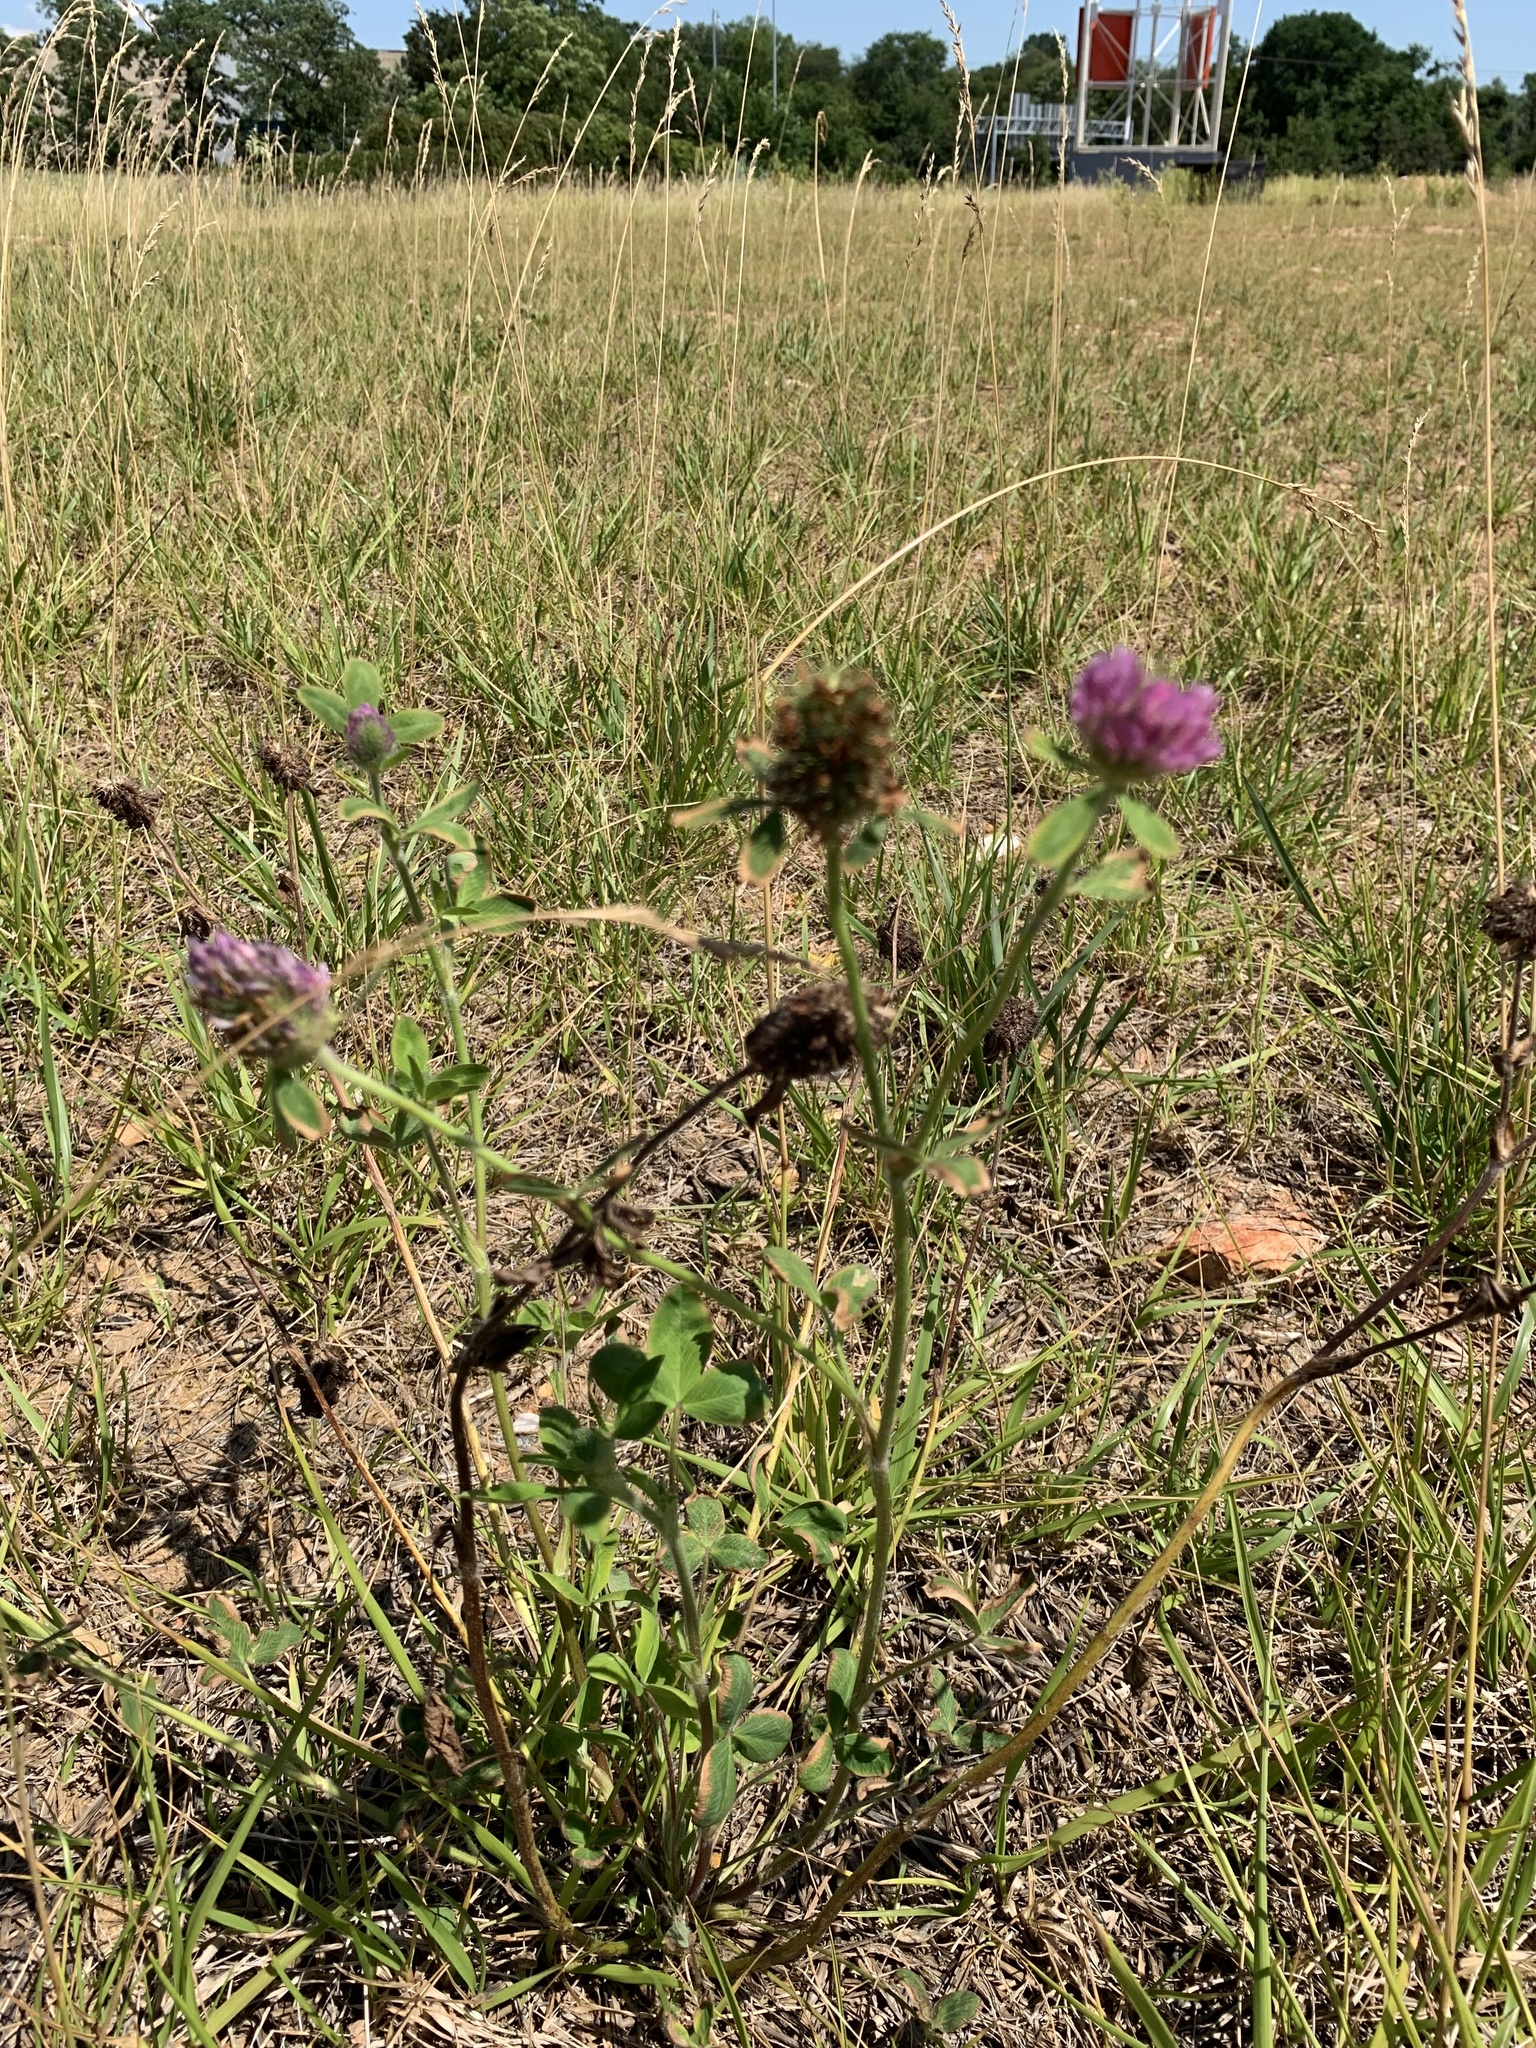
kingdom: Plantae
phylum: Tracheophyta
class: Magnoliopsida
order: Fabales
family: Fabaceae
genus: Trifolium
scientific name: Trifolium pratense
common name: Red clover
